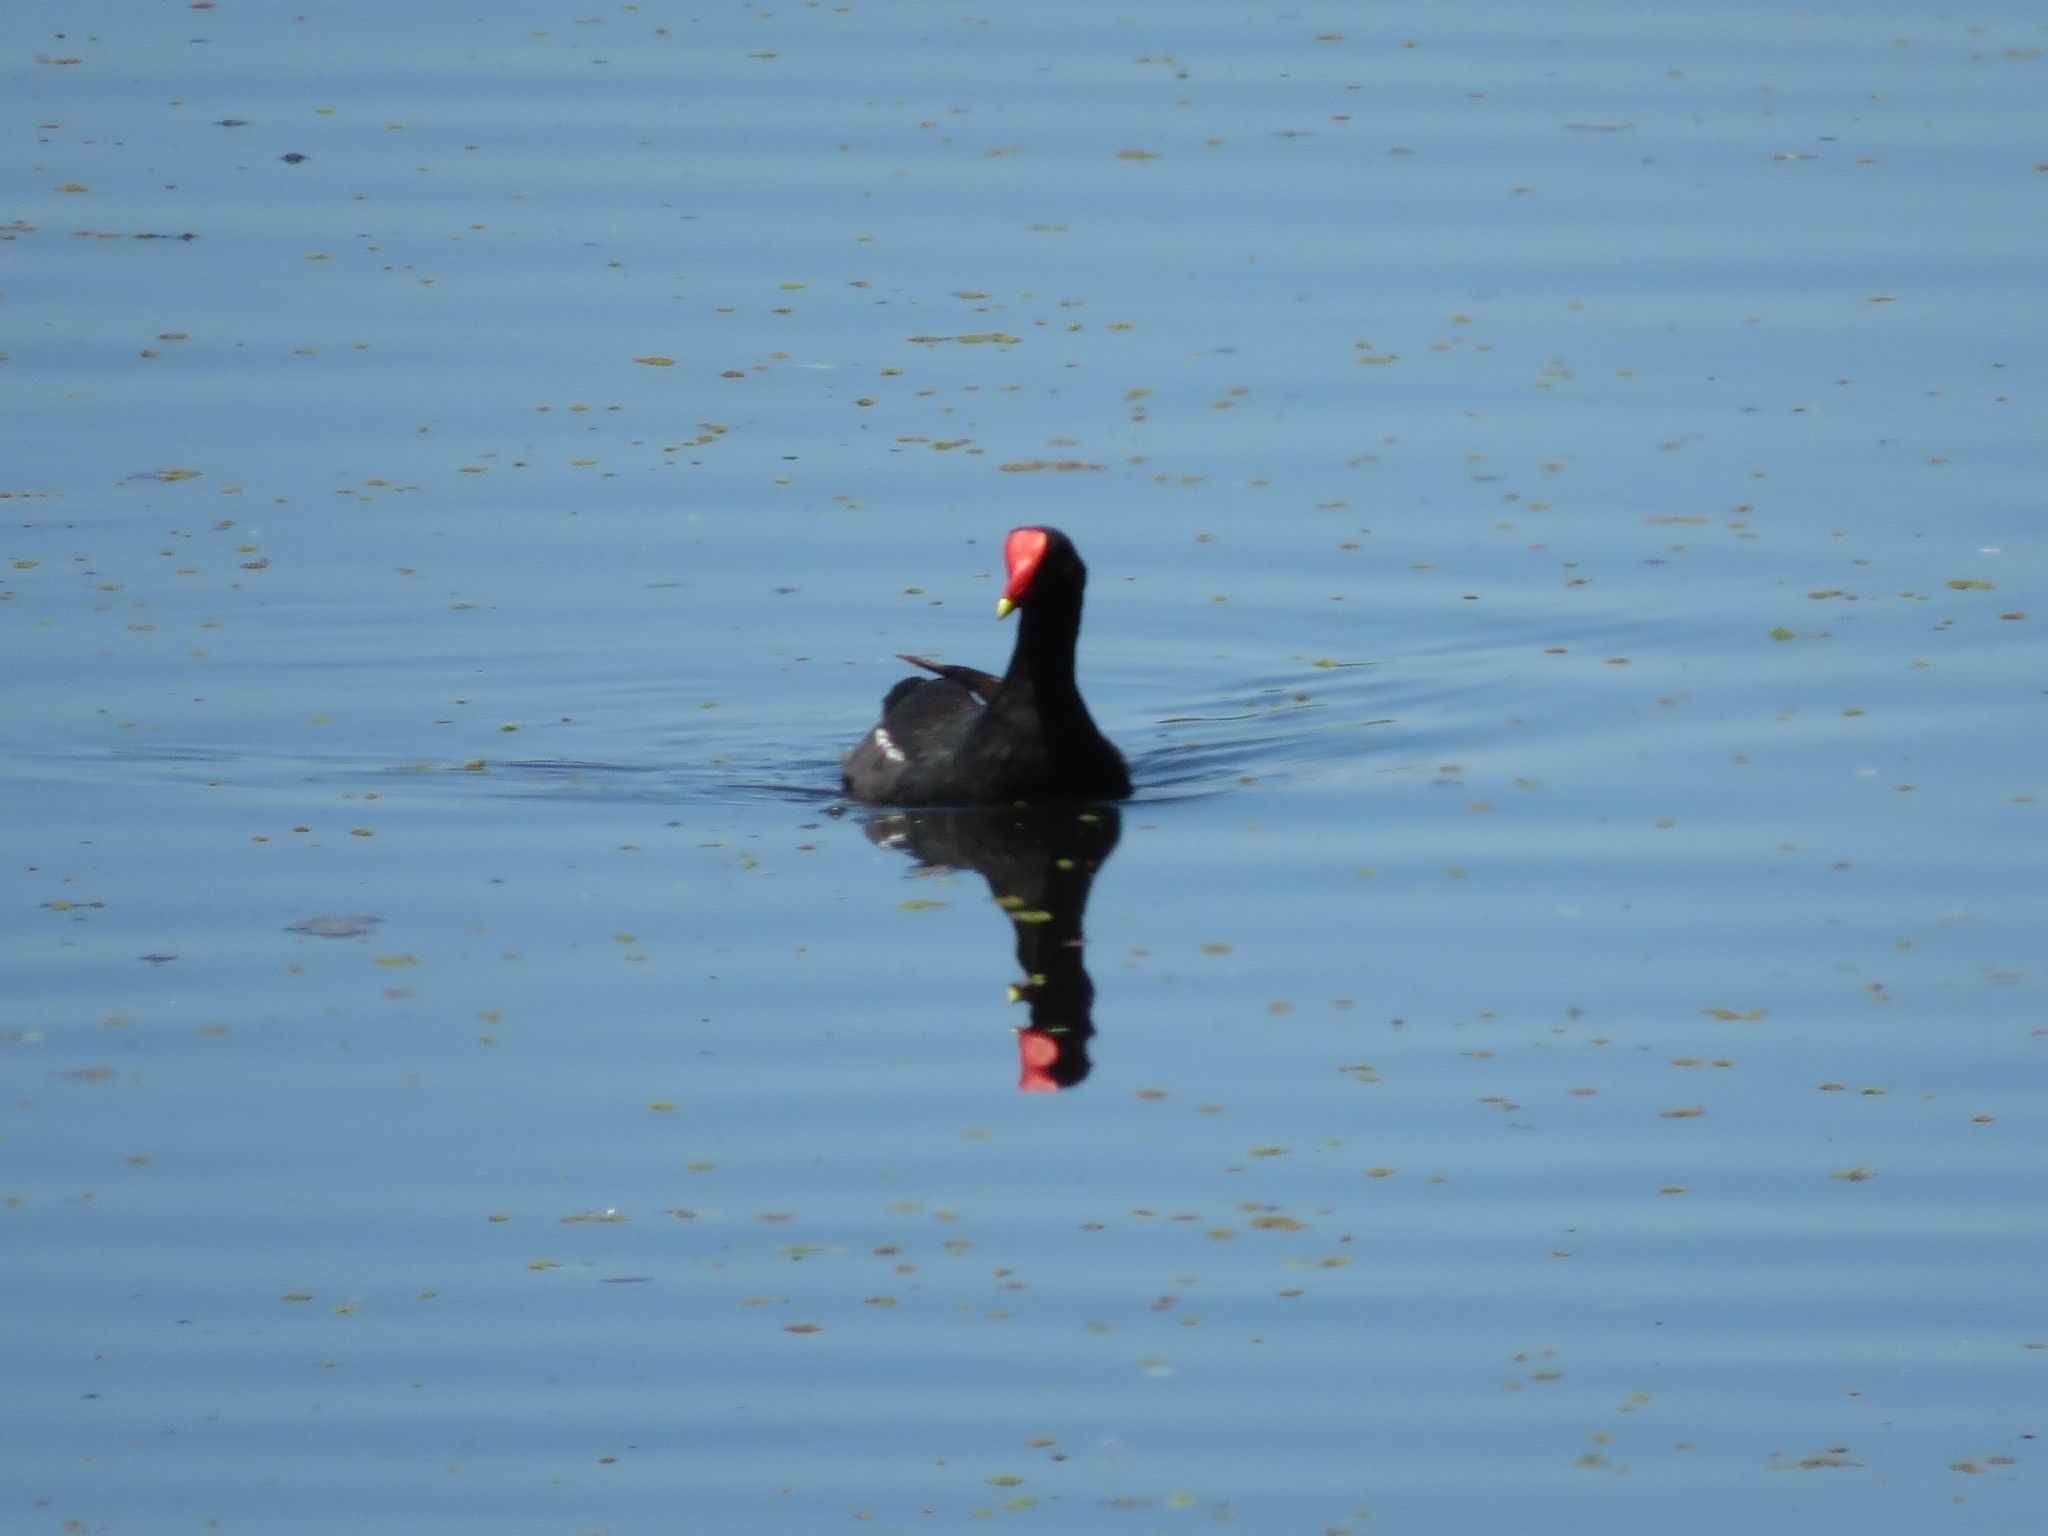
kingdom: Animalia
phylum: Chordata
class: Aves
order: Gruiformes
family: Rallidae
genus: Gallinula
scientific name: Gallinula chloropus
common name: Common moorhen
